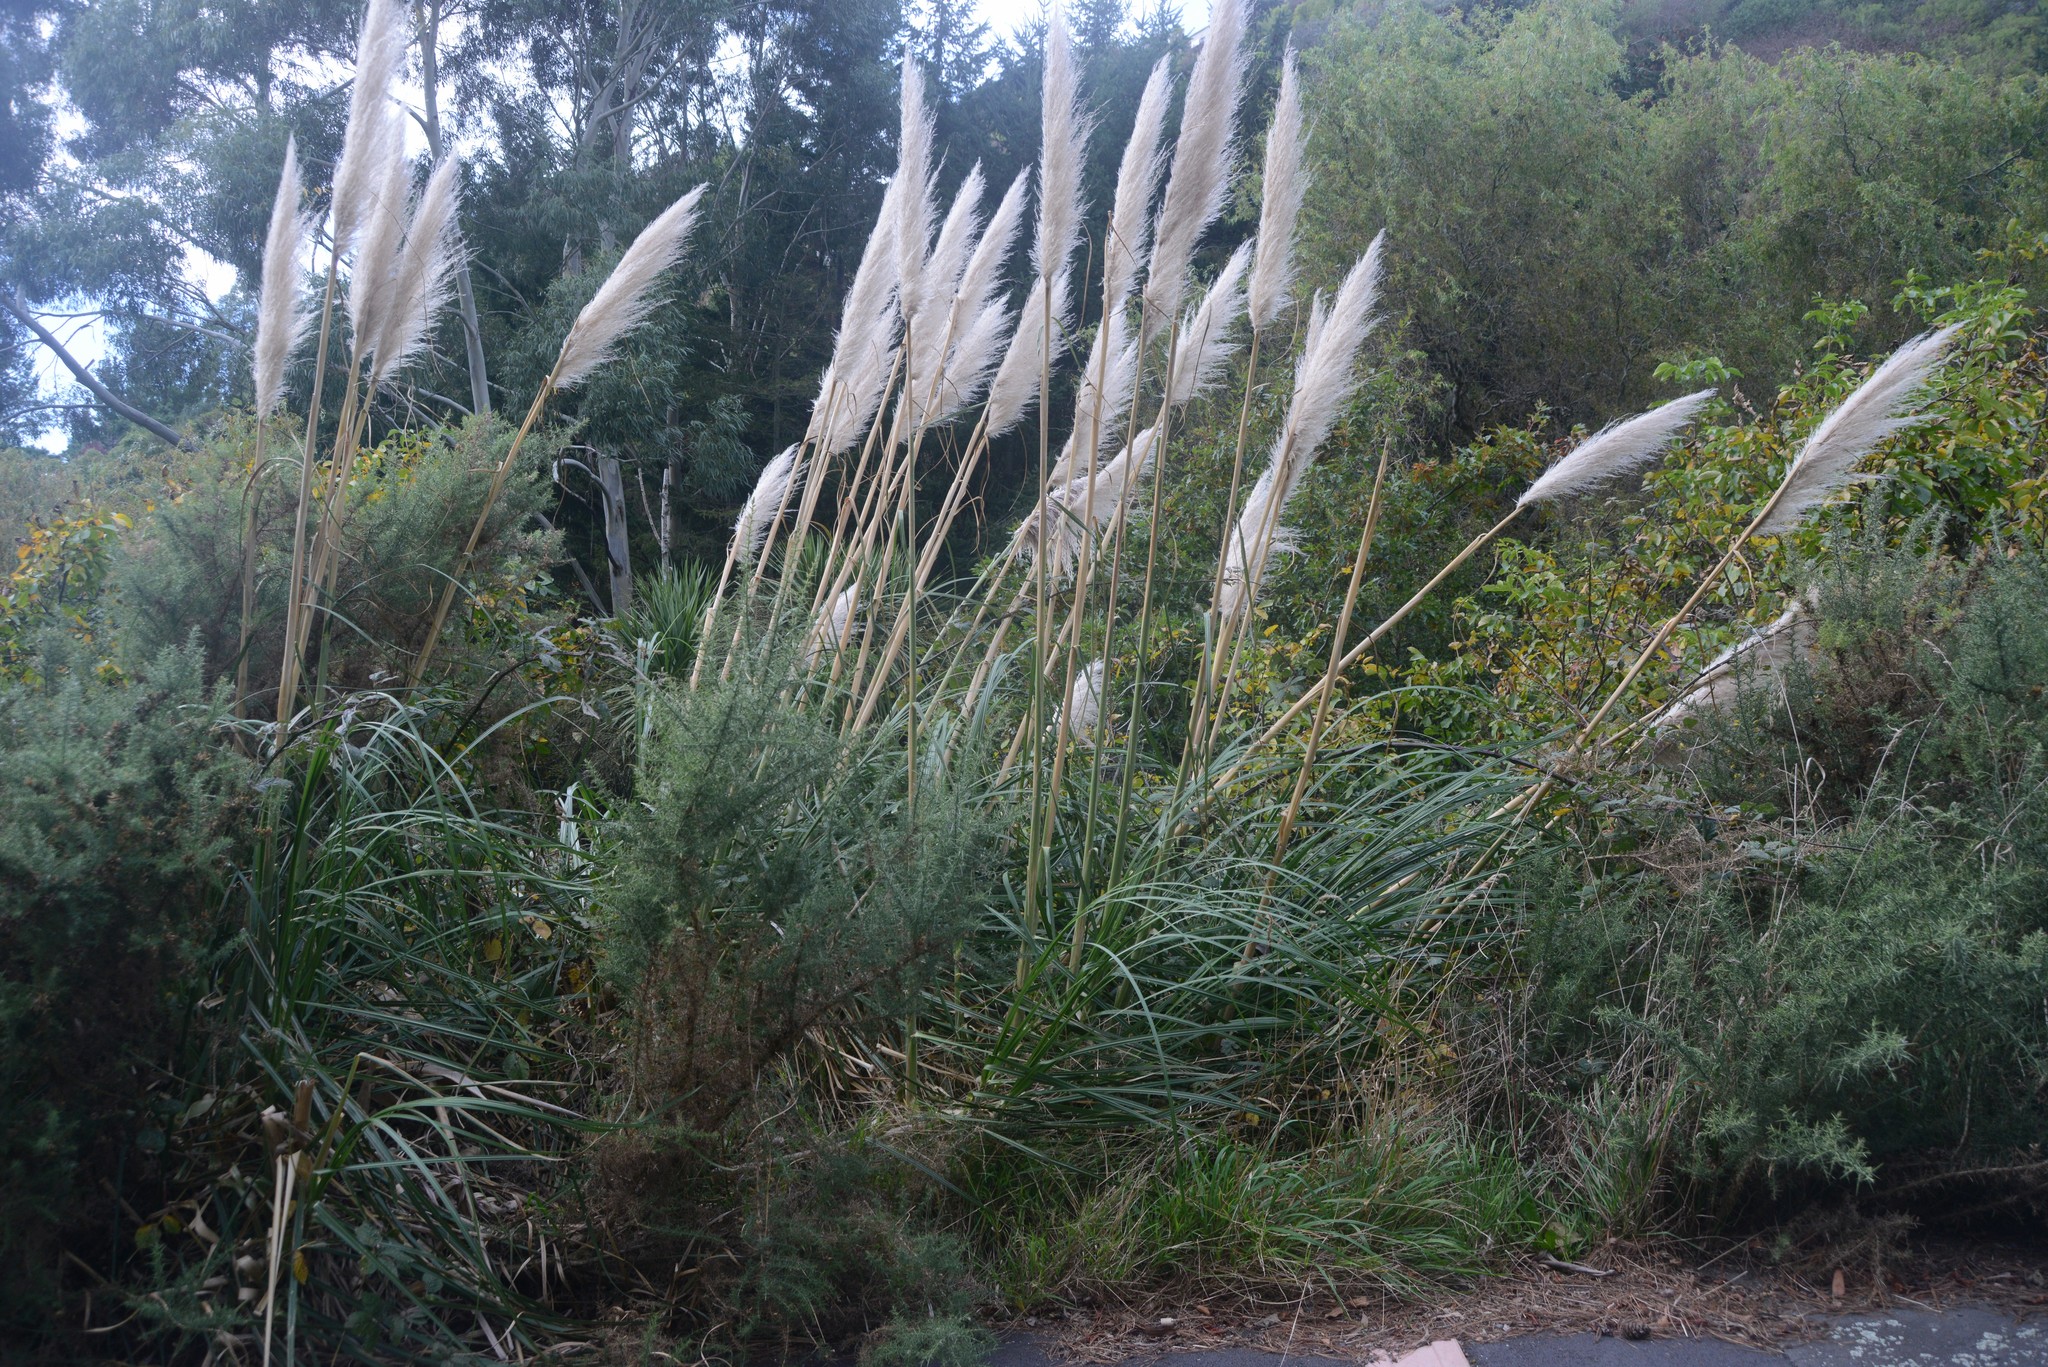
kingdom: Plantae
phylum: Tracheophyta
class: Liliopsida
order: Poales
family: Poaceae
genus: Cortaderia
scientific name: Cortaderia selloana
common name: Uruguayan pampas grass
